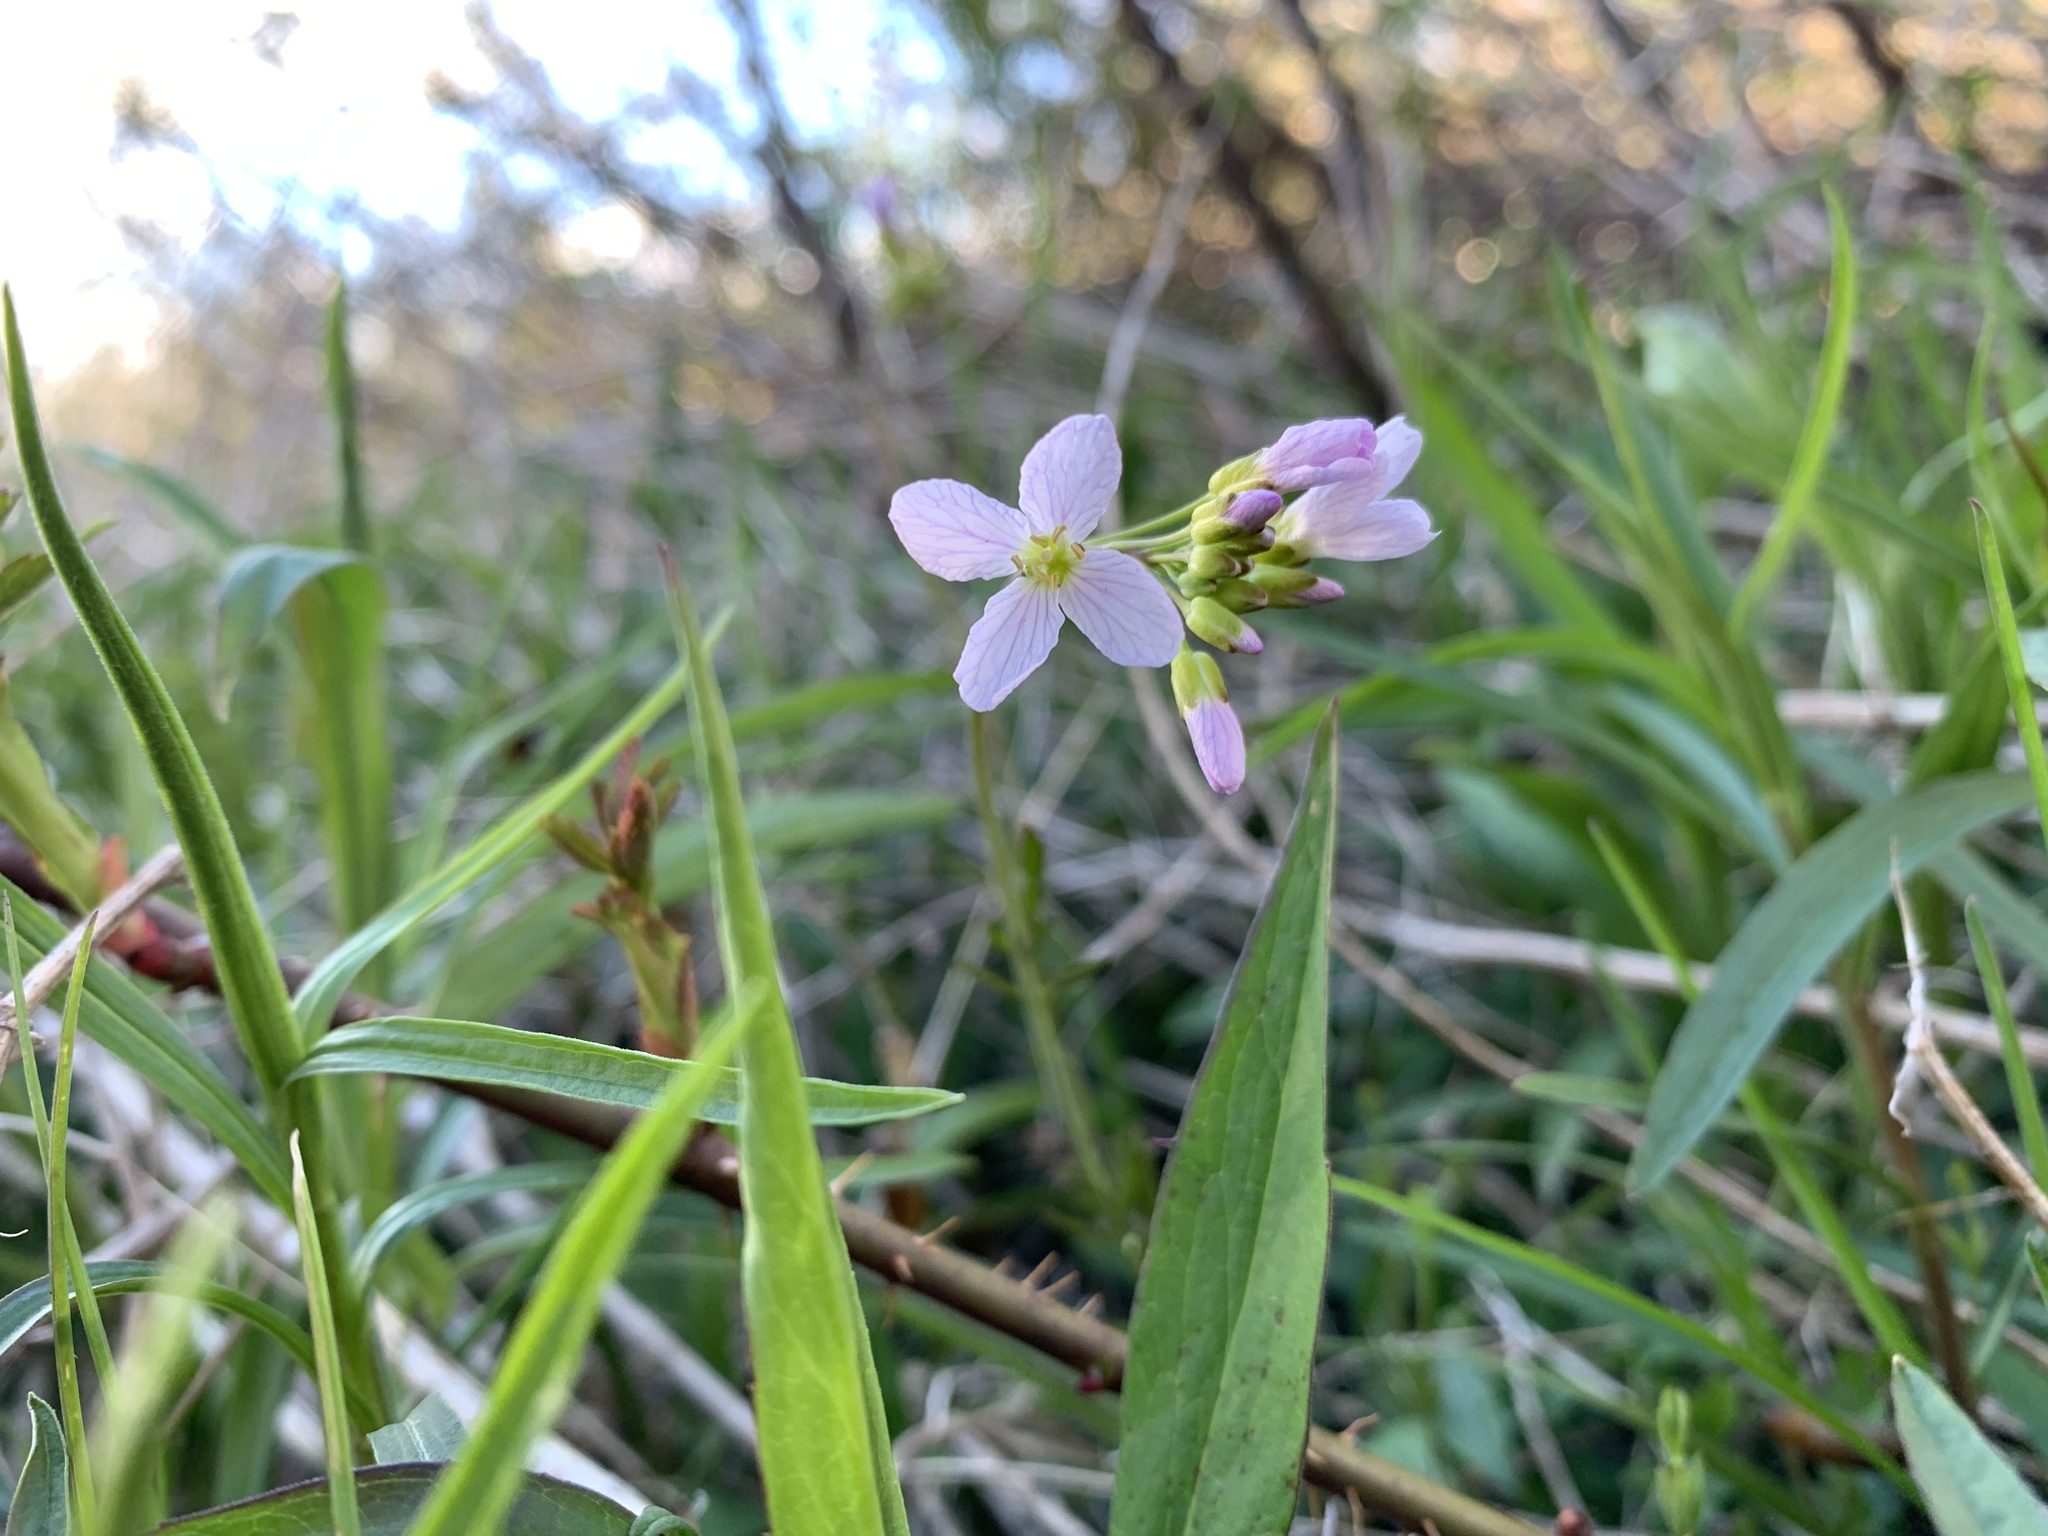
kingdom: Plantae
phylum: Tracheophyta
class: Magnoliopsida
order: Brassicales
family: Brassicaceae
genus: Cardamine
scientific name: Cardamine pratensis
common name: Cuckoo flower
